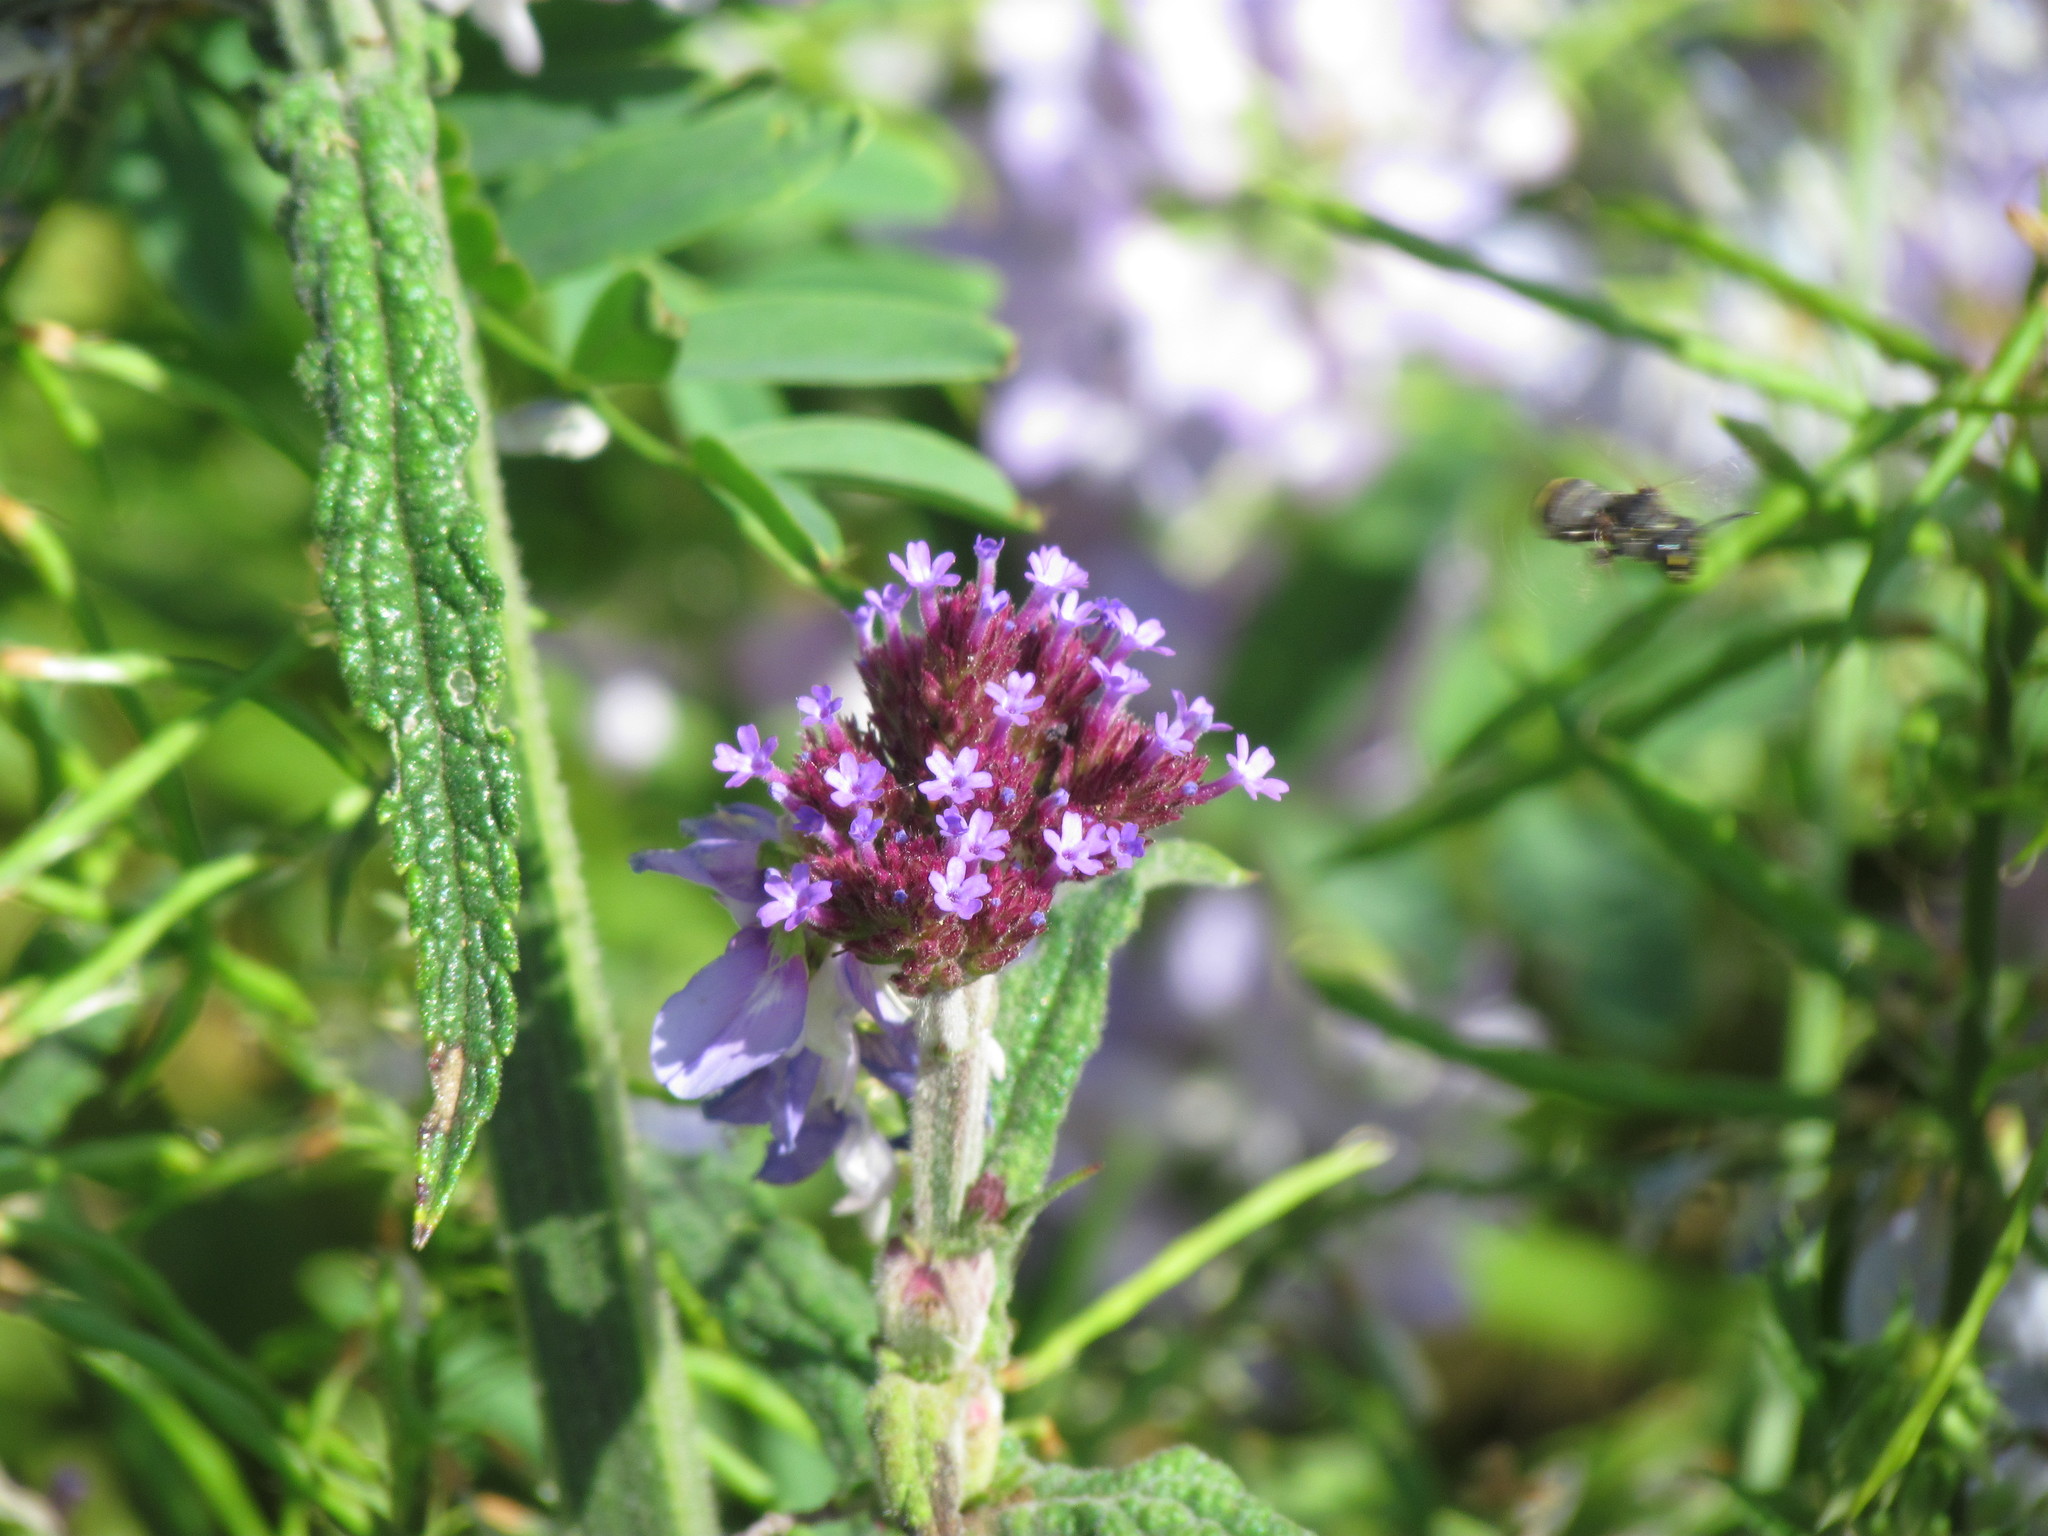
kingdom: Plantae
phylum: Tracheophyta
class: Magnoliopsida
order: Lamiales
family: Verbenaceae
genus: Verbena
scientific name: Verbena bonariensis
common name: Purpletop vervain
